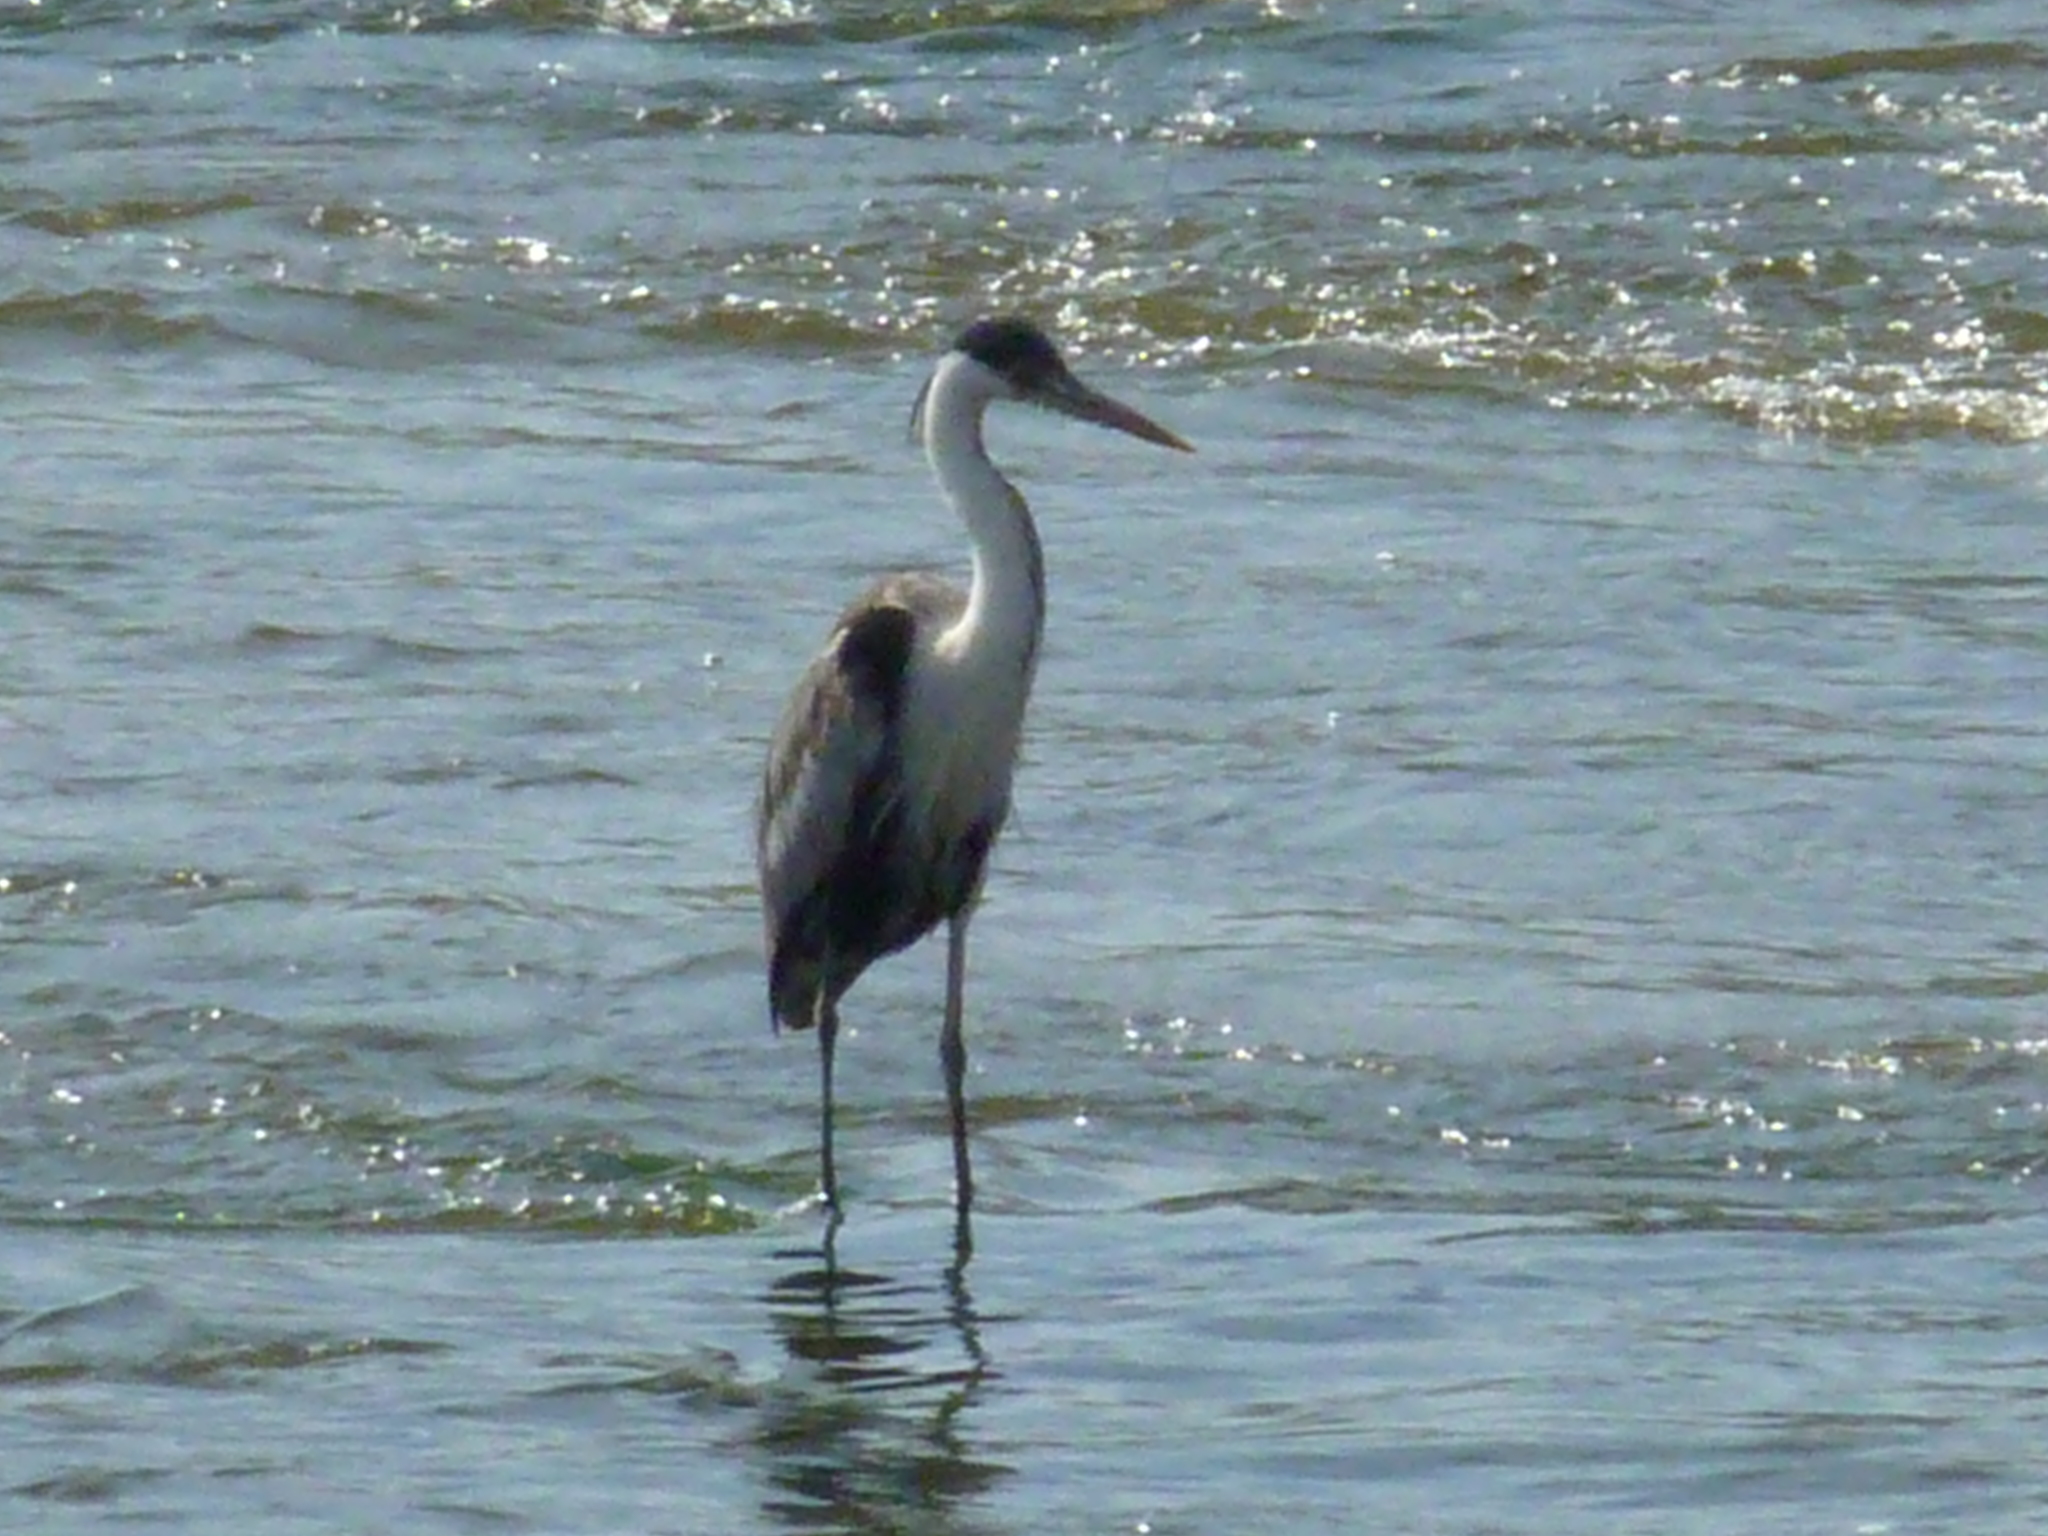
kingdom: Animalia
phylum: Chordata
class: Aves
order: Pelecaniformes
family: Ardeidae
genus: Ardea
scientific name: Ardea cocoi
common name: Cocoi heron
